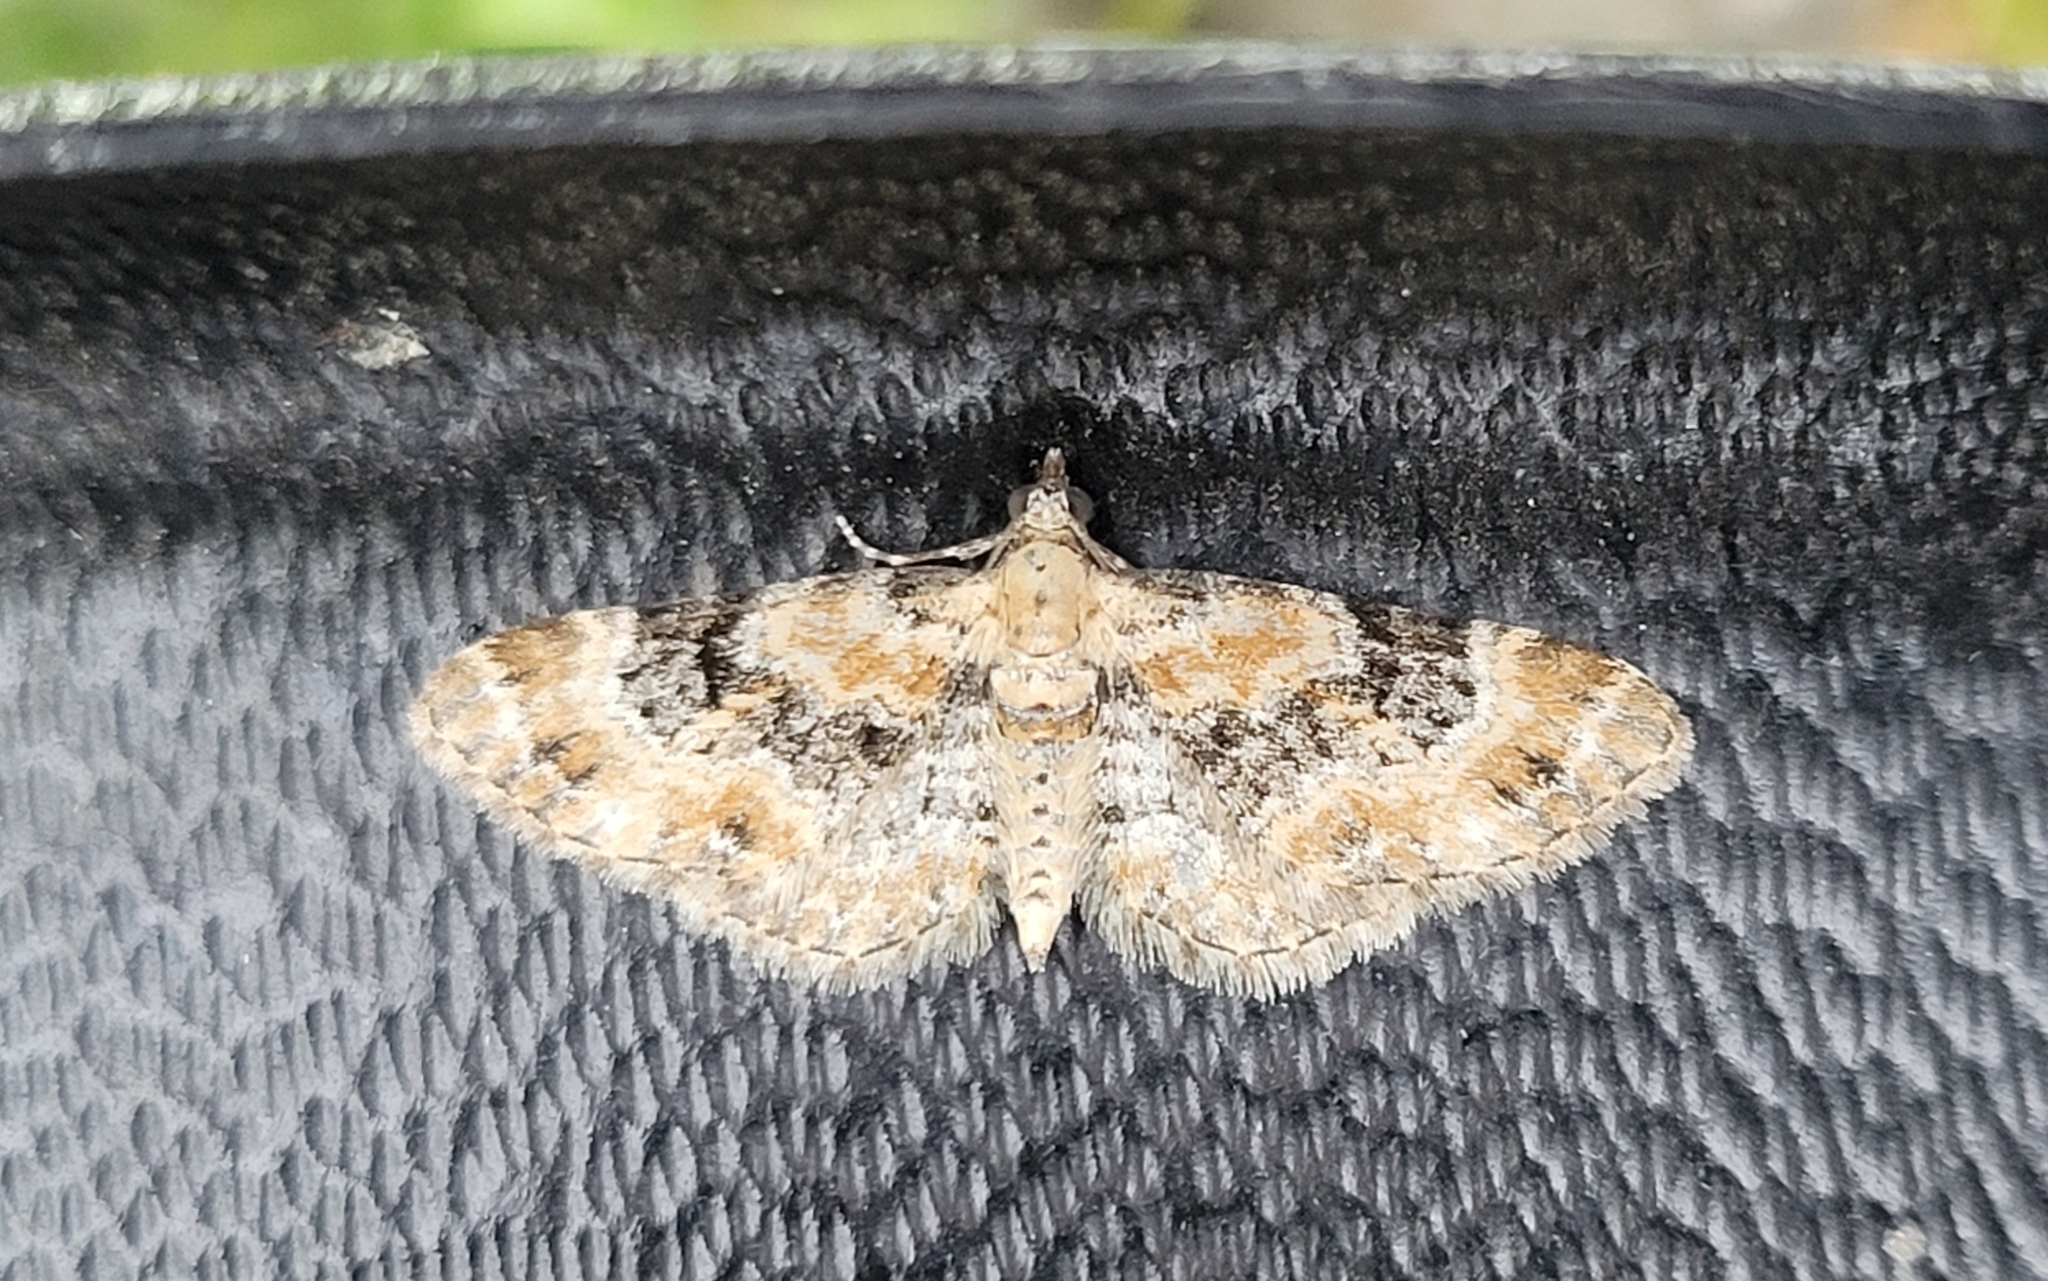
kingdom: Animalia
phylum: Arthropoda
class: Insecta
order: Lepidoptera
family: Geometridae
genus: Eupithecia
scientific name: Eupithecia pulchellata
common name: Foxglove pug
